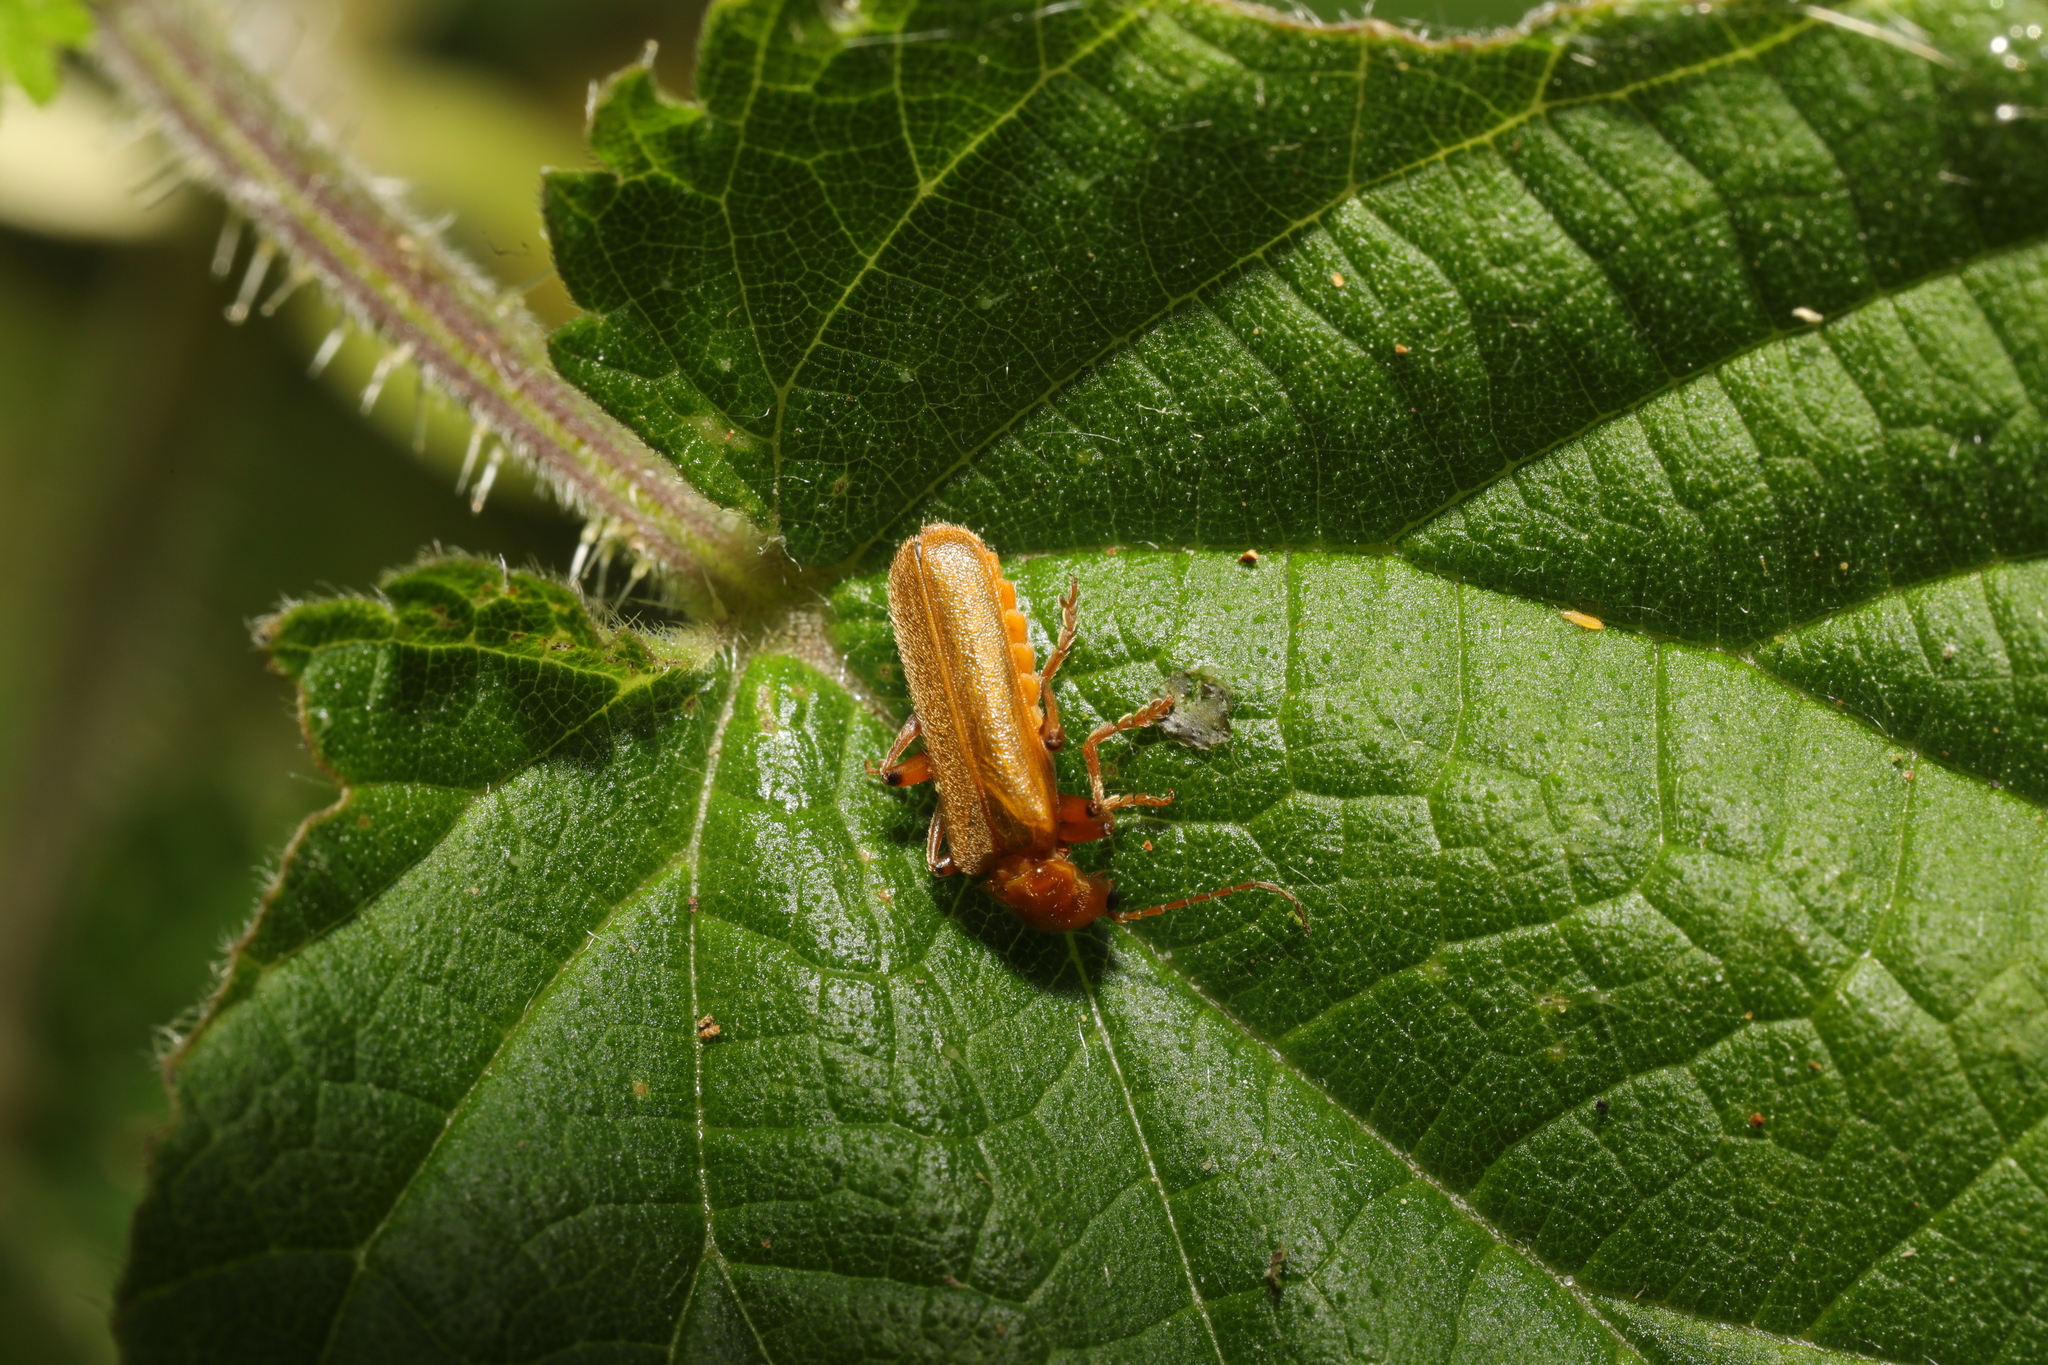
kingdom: Animalia
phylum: Arthropoda
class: Insecta
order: Coleoptera
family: Cantharidae
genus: Cantharis
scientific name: Cantharis cryptica
